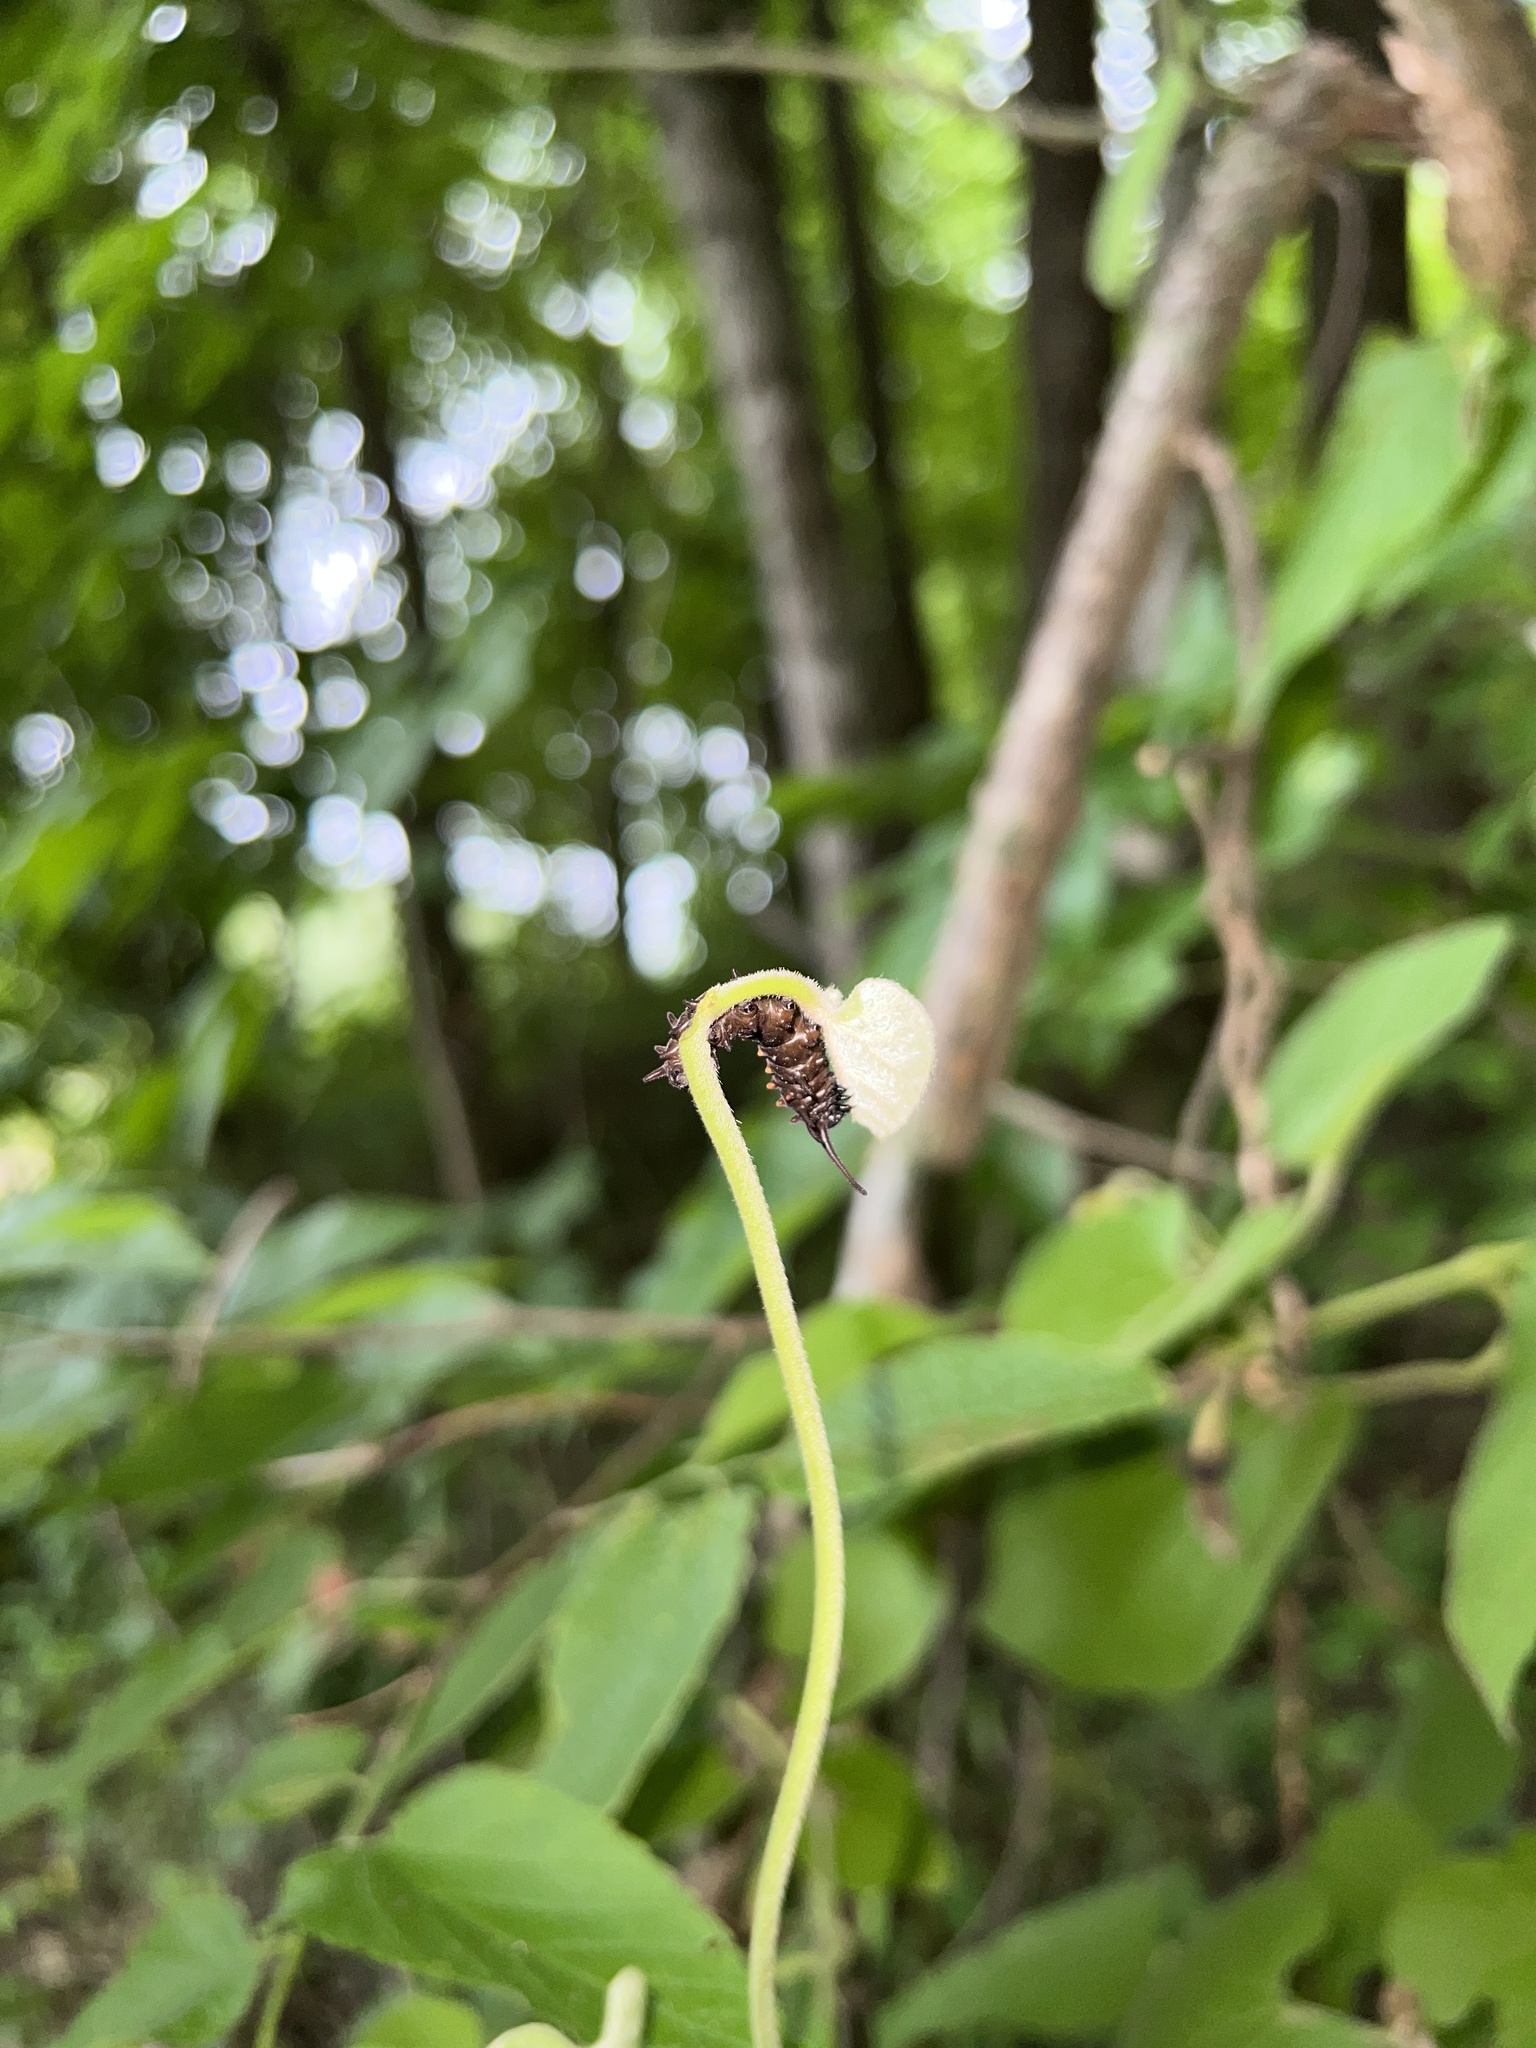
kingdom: Animalia
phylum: Arthropoda
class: Insecta
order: Lepidoptera
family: Papilionidae
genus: Battus
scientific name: Battus philenor
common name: Pipevine swallowtail
